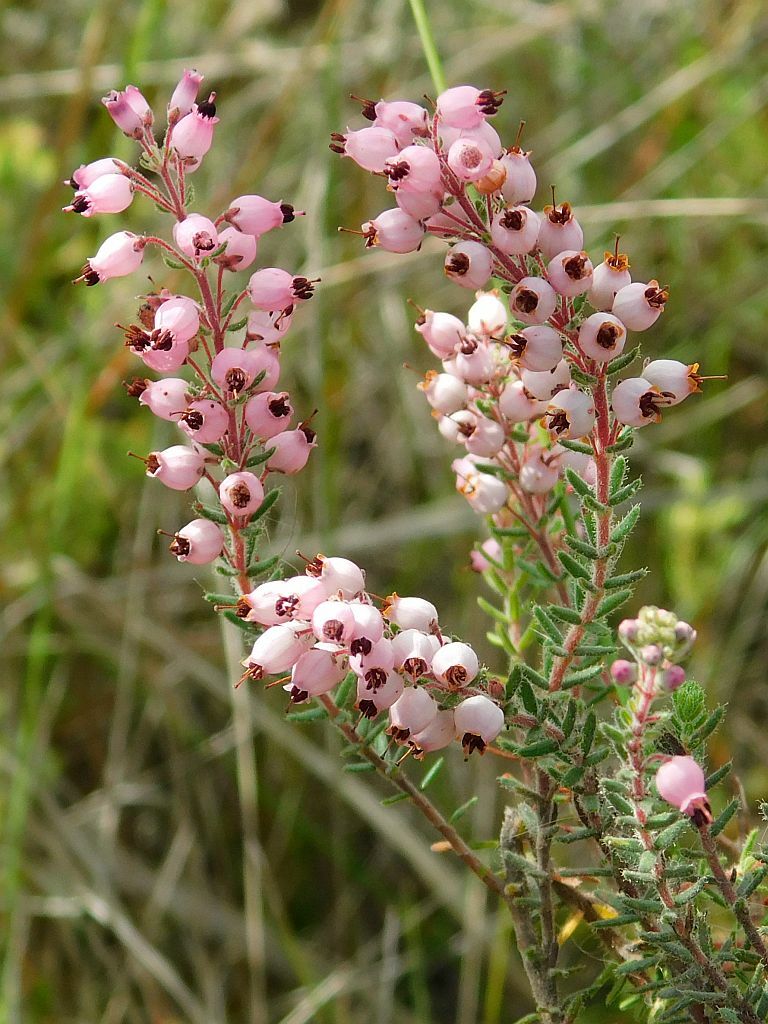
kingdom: Plantae
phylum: Tracheophyta
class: Magnoliopsida
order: Ericales
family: Ericaceae
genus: Erica
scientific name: Erica hirta
